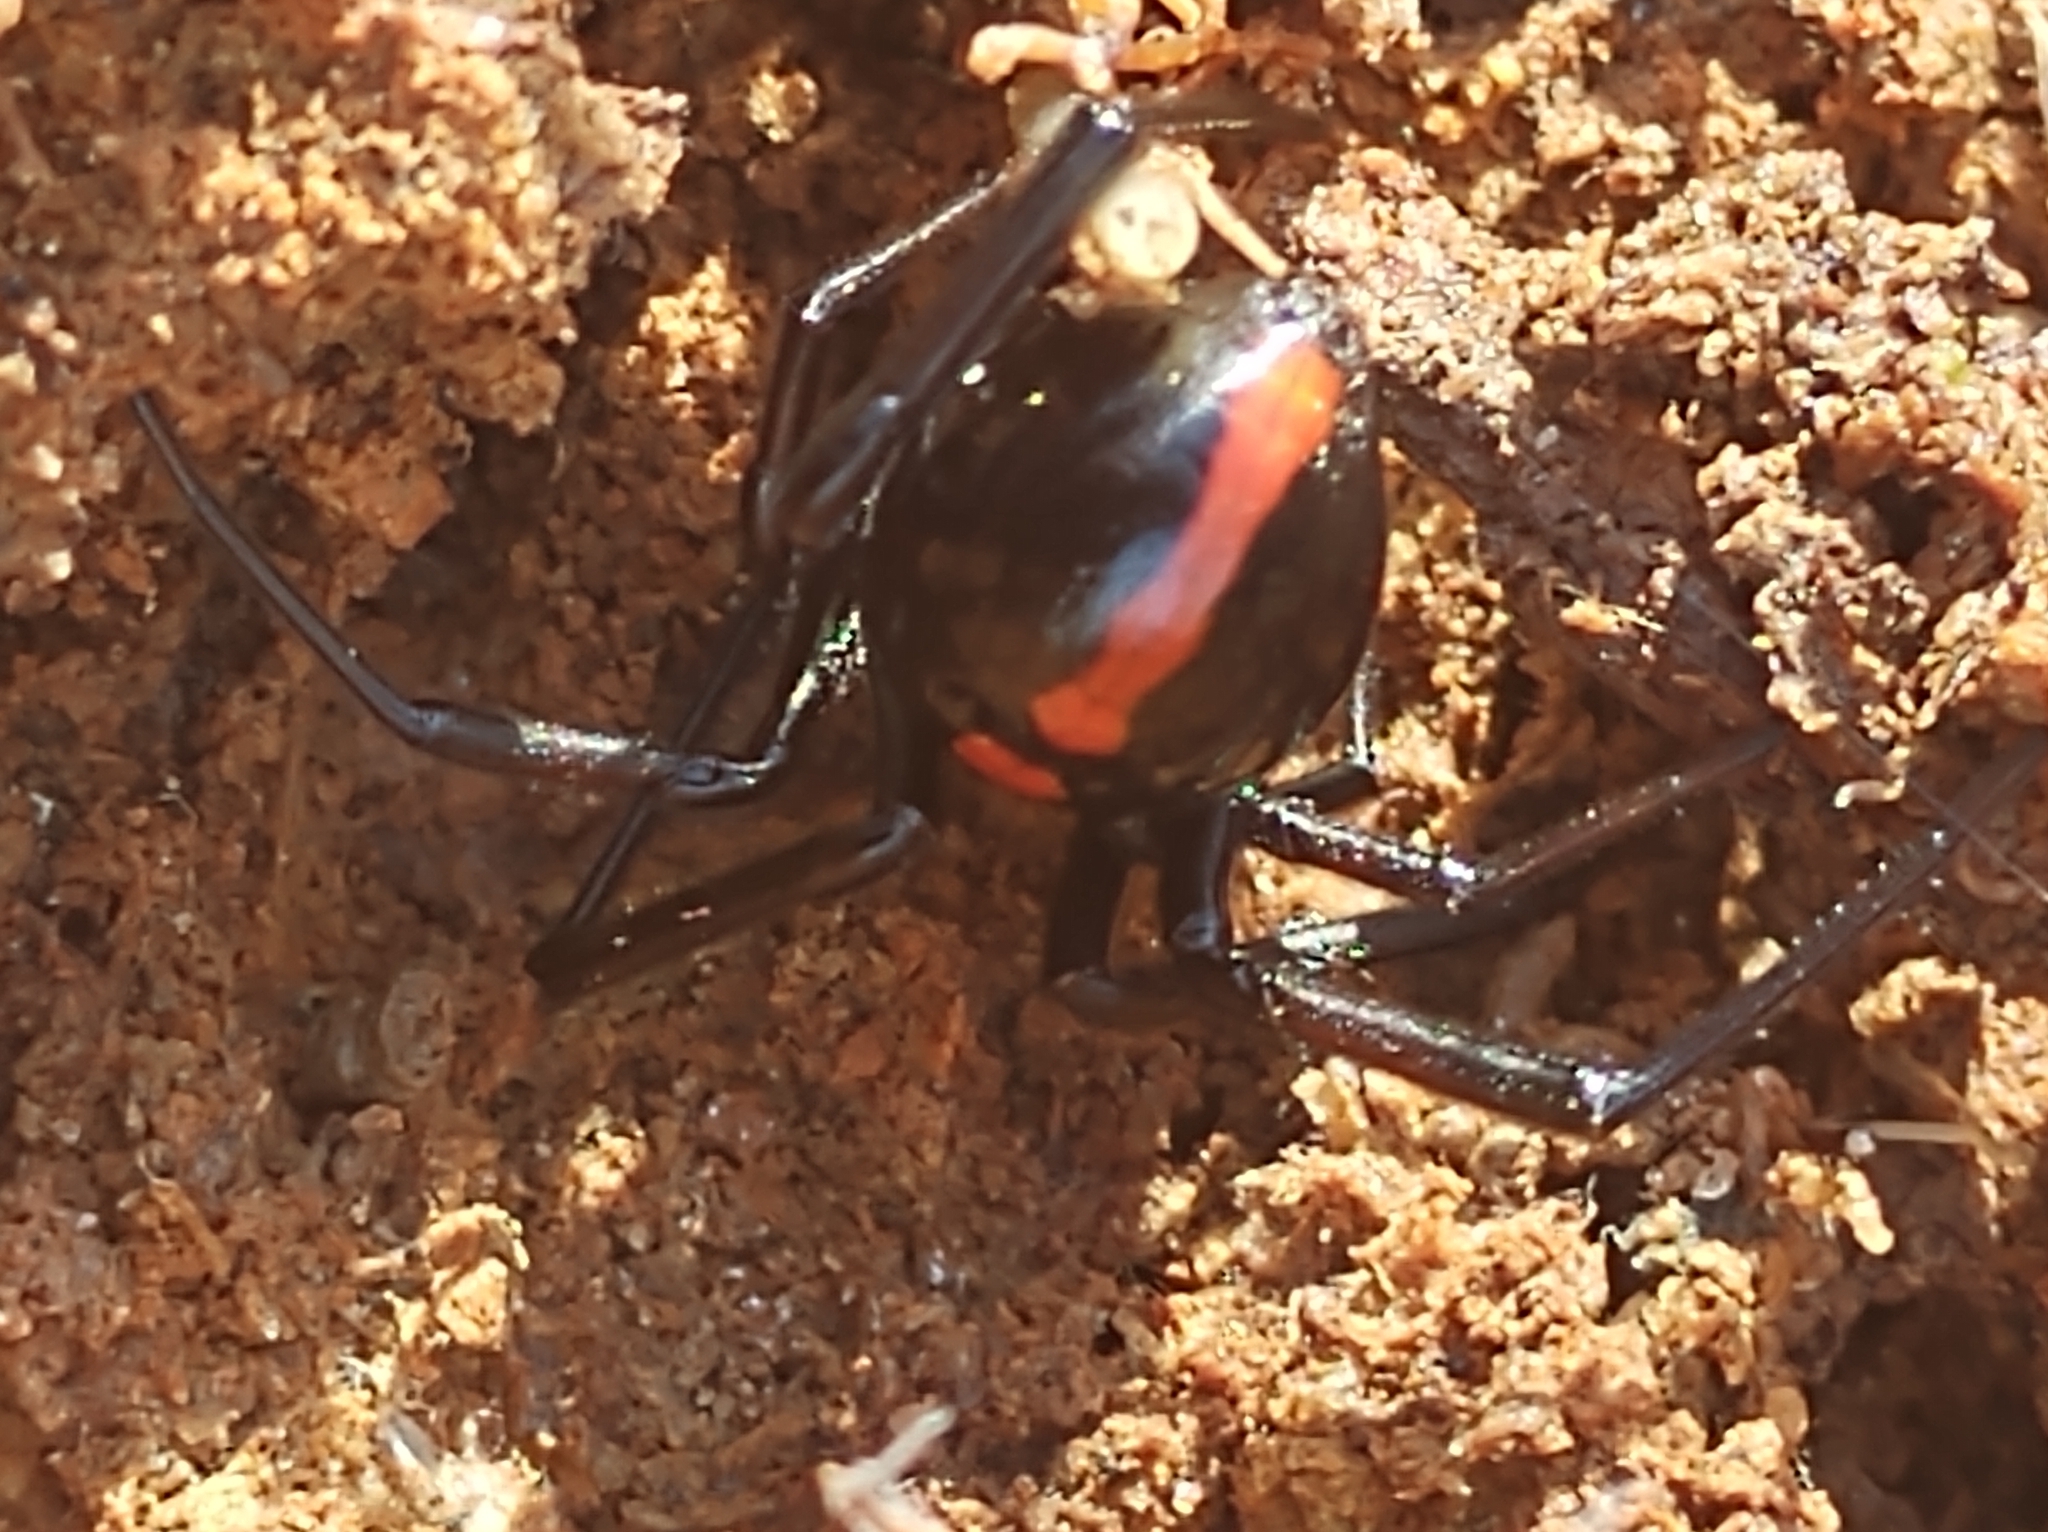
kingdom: Animalia
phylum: Arthropoda
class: Arachnida
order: Araneae
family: Theridiidae
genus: Latrodectus
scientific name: Latrodectus mactans
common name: Cobweb spiders
